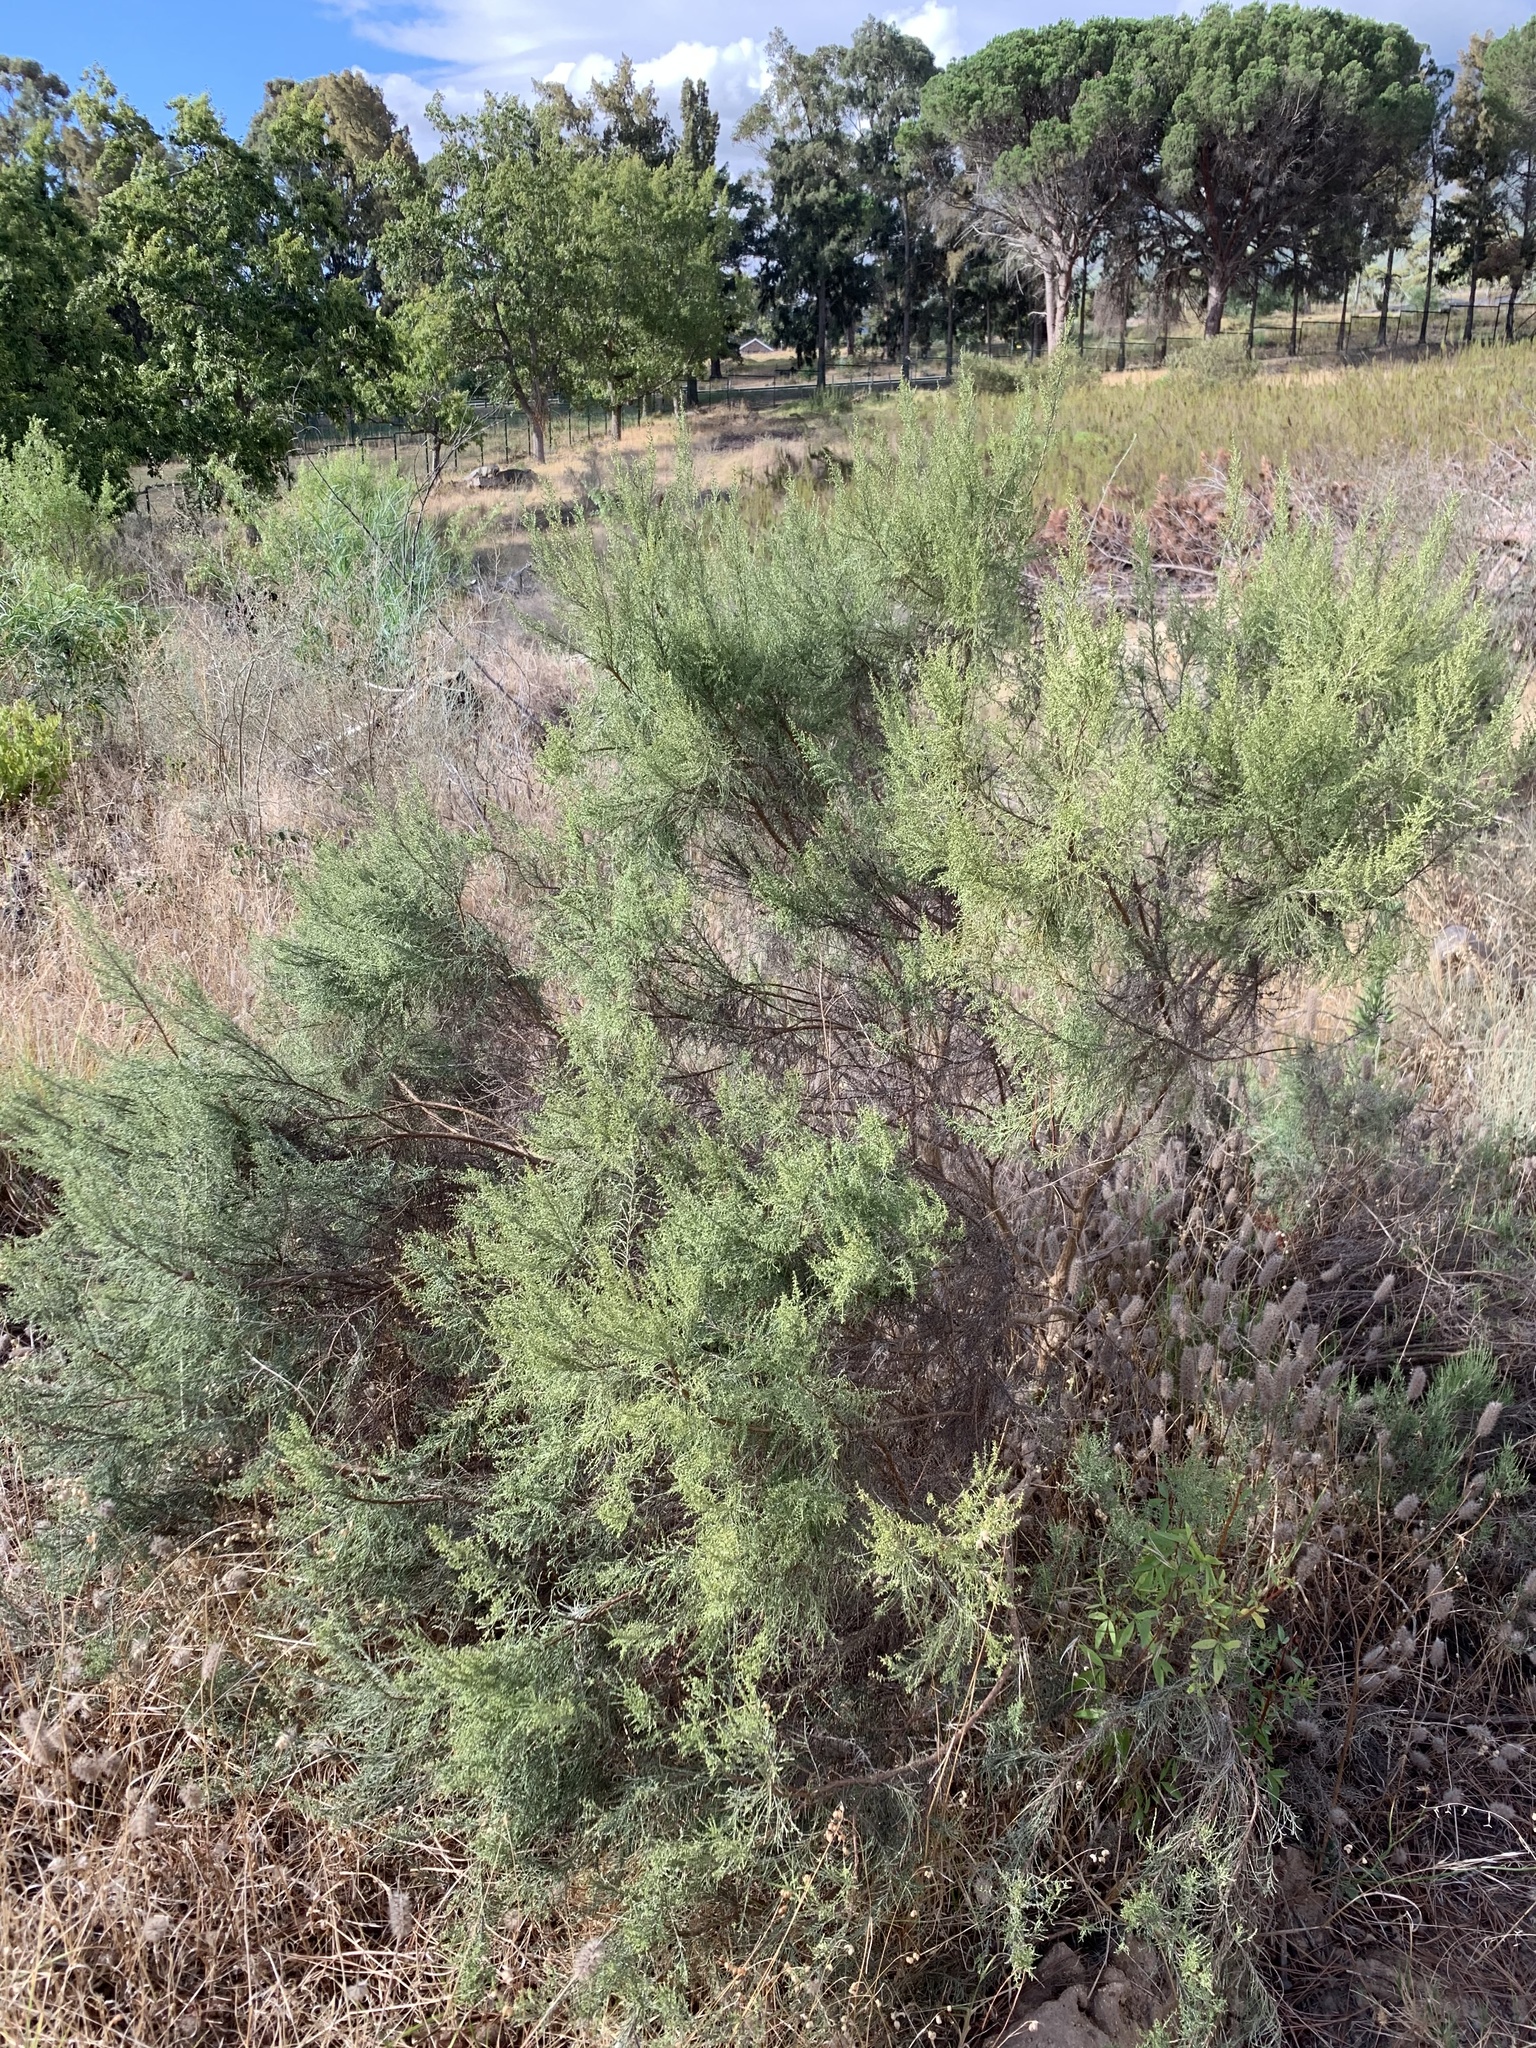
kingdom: Plantae
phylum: Tracheophyta
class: Magnoliopsida
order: Asterales
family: Asteraceae
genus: Dicerothamnus
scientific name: Dicerothamnus rhinocerotis
